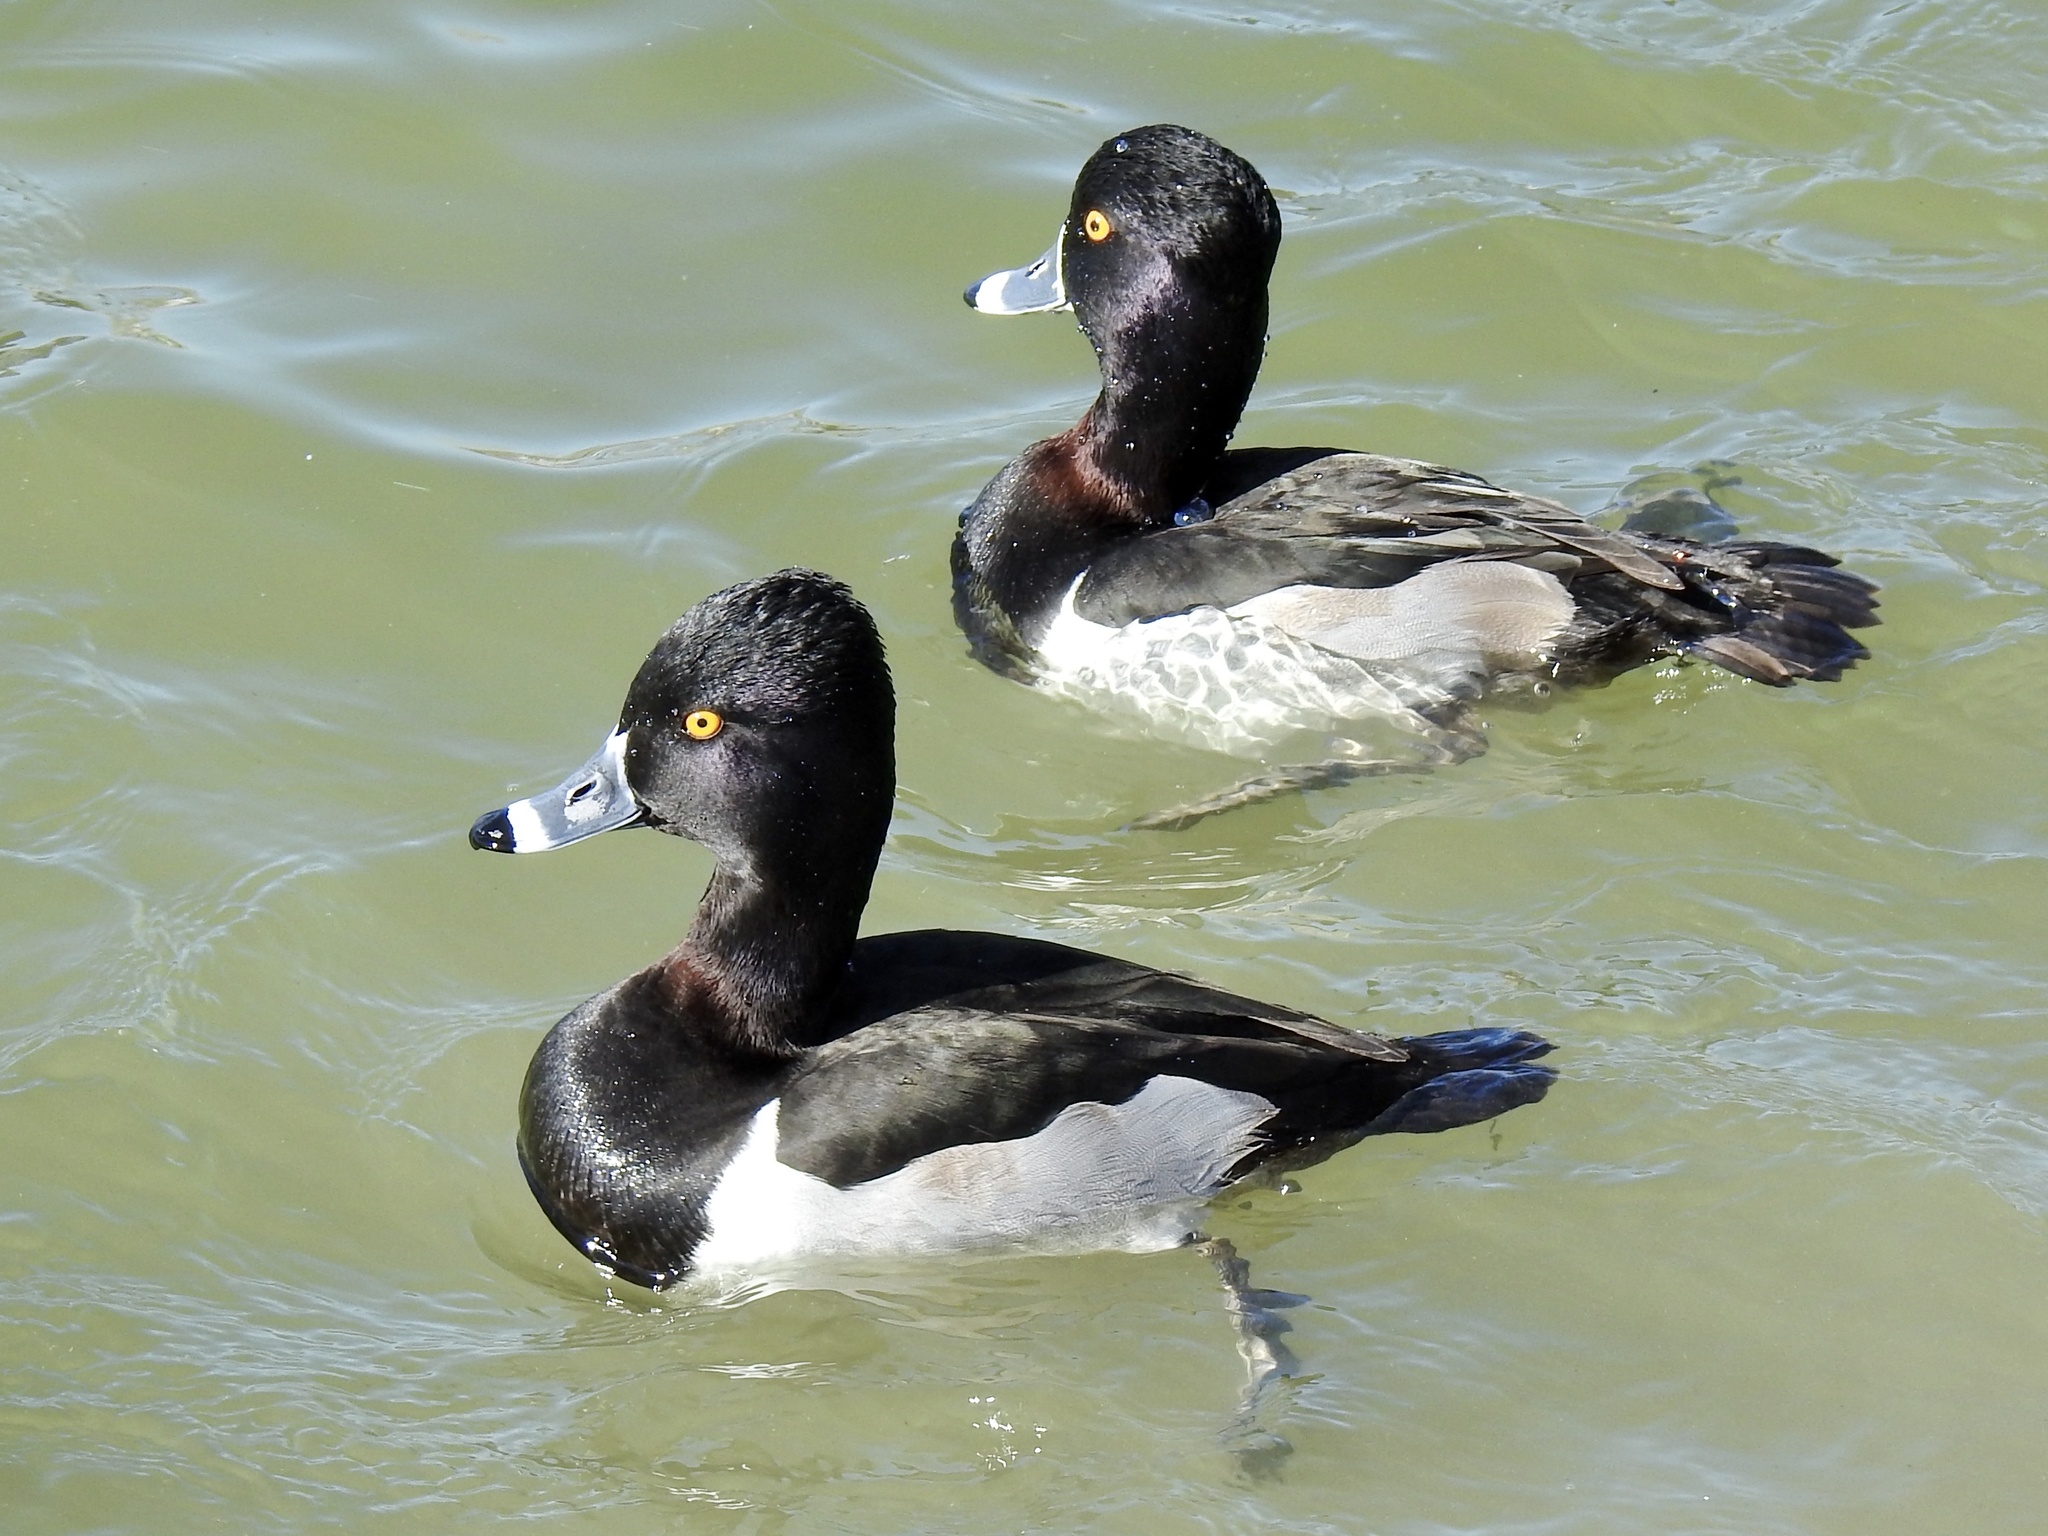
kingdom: Animalia
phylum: Chordata
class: Aves
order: Anseriformes
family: Anatidae
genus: Aythya
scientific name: Aythya collaris
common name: Ring-necked duck
